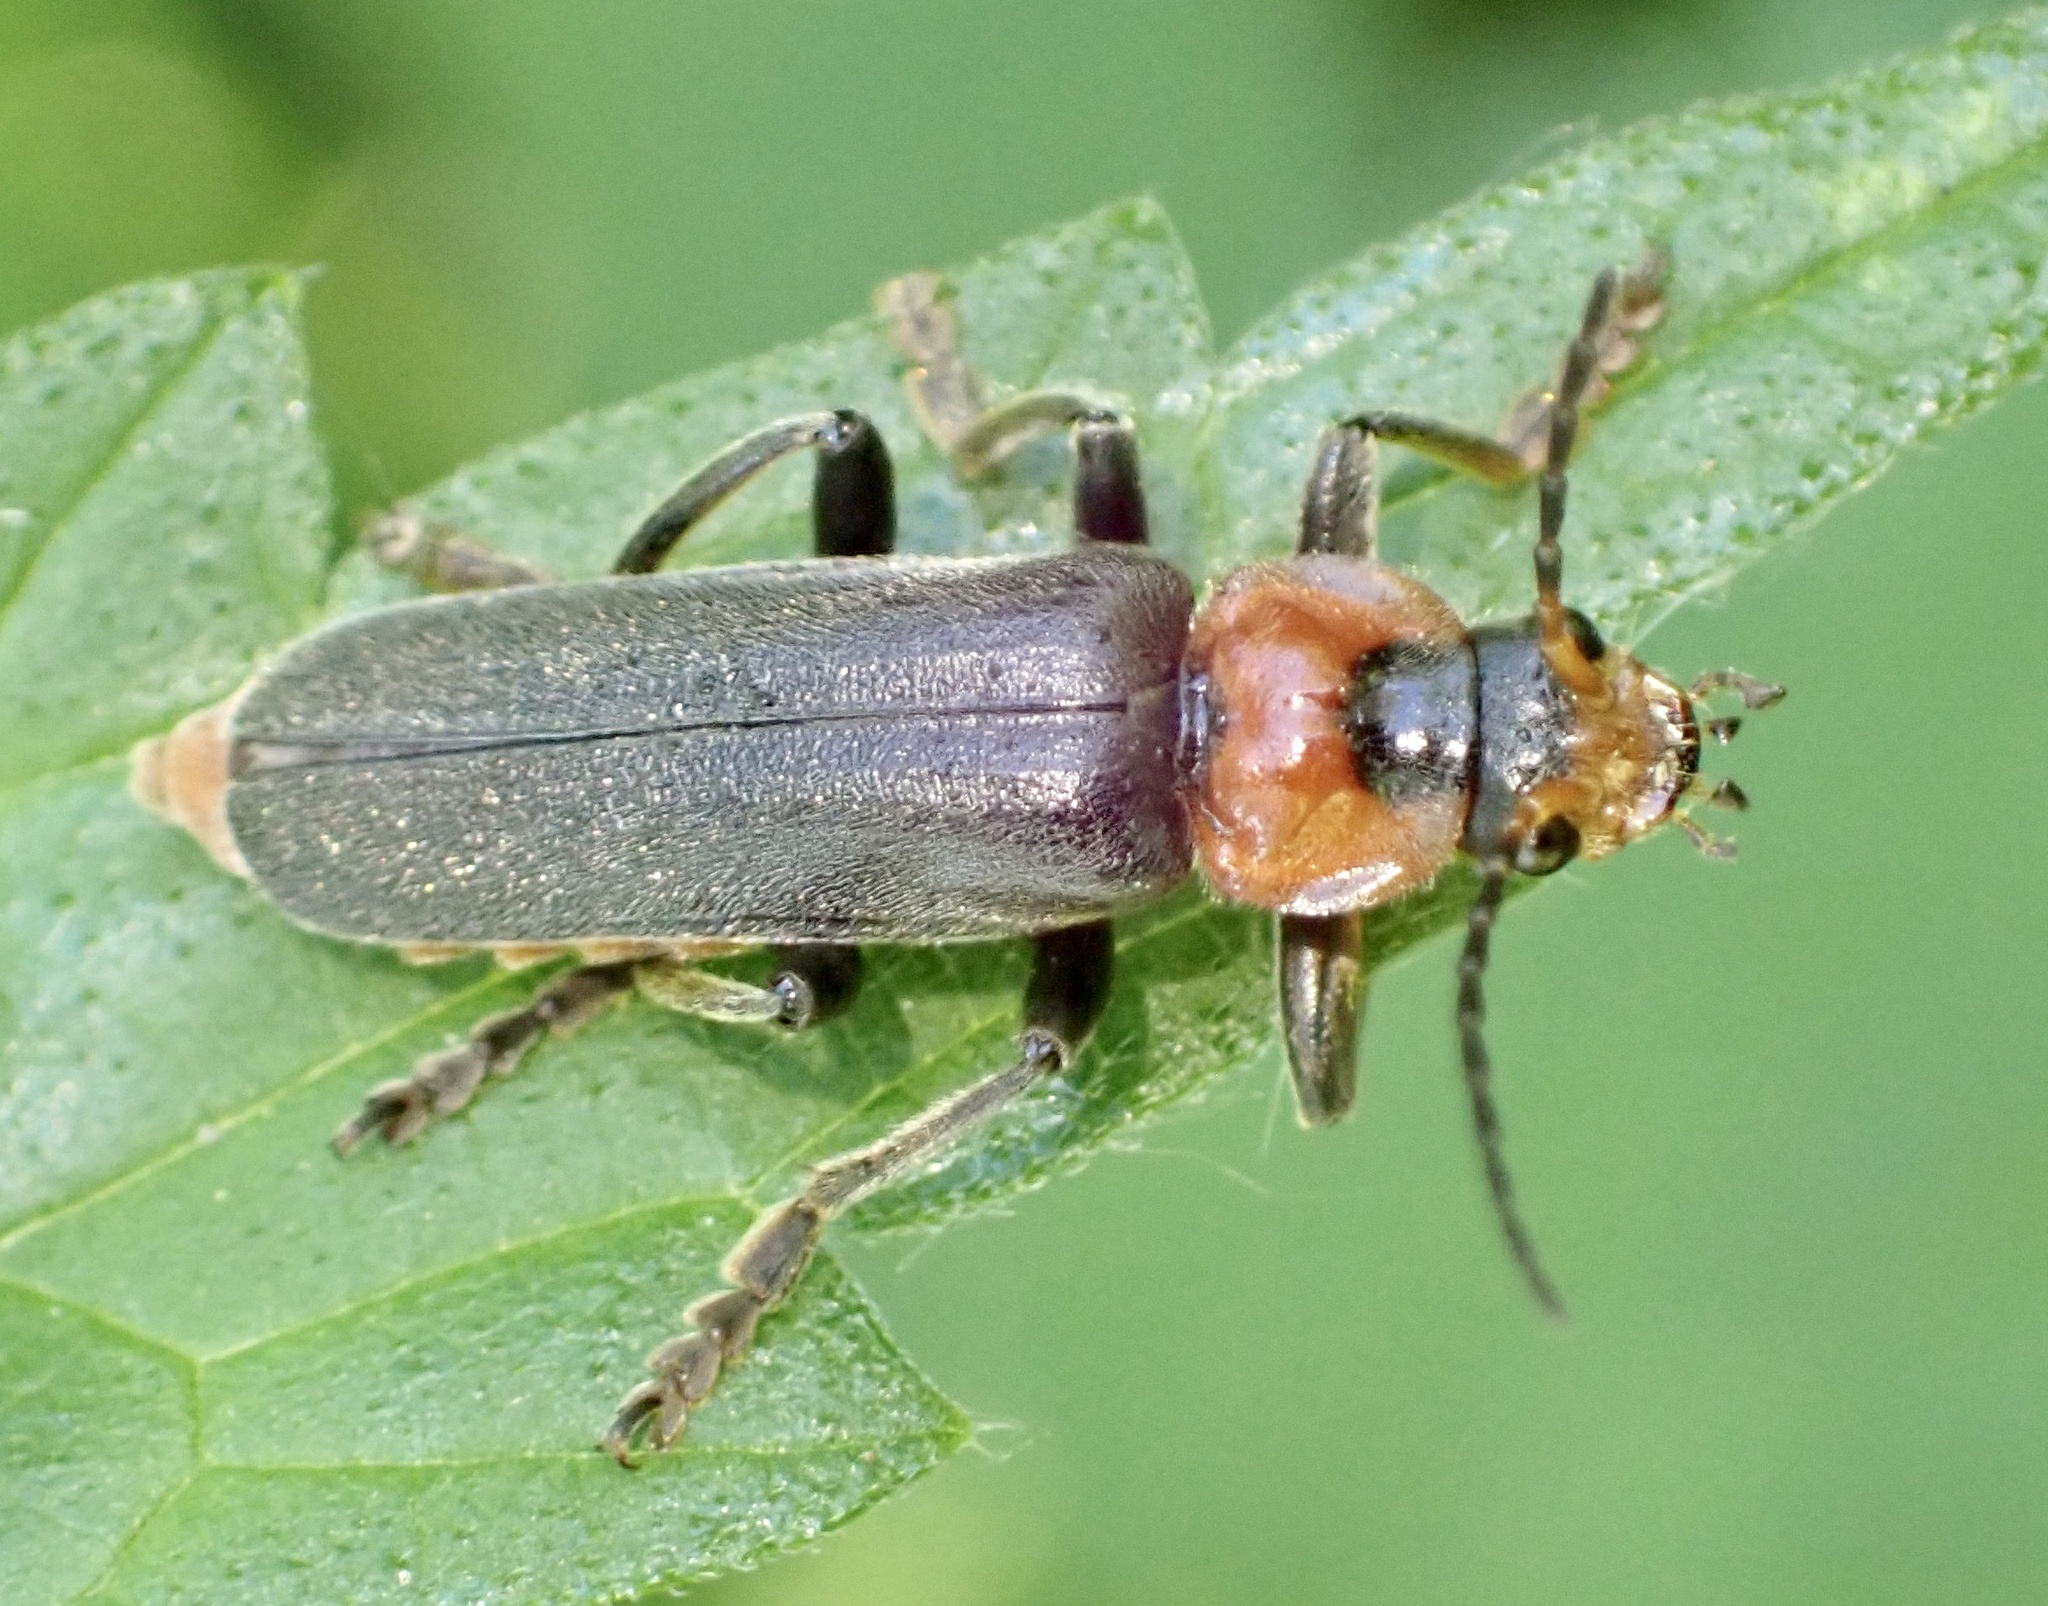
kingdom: Animalia
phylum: Arthropoda
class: Insecta
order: Coleoptera
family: Cantharidae
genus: Cantharis
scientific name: Cantharis fusca
